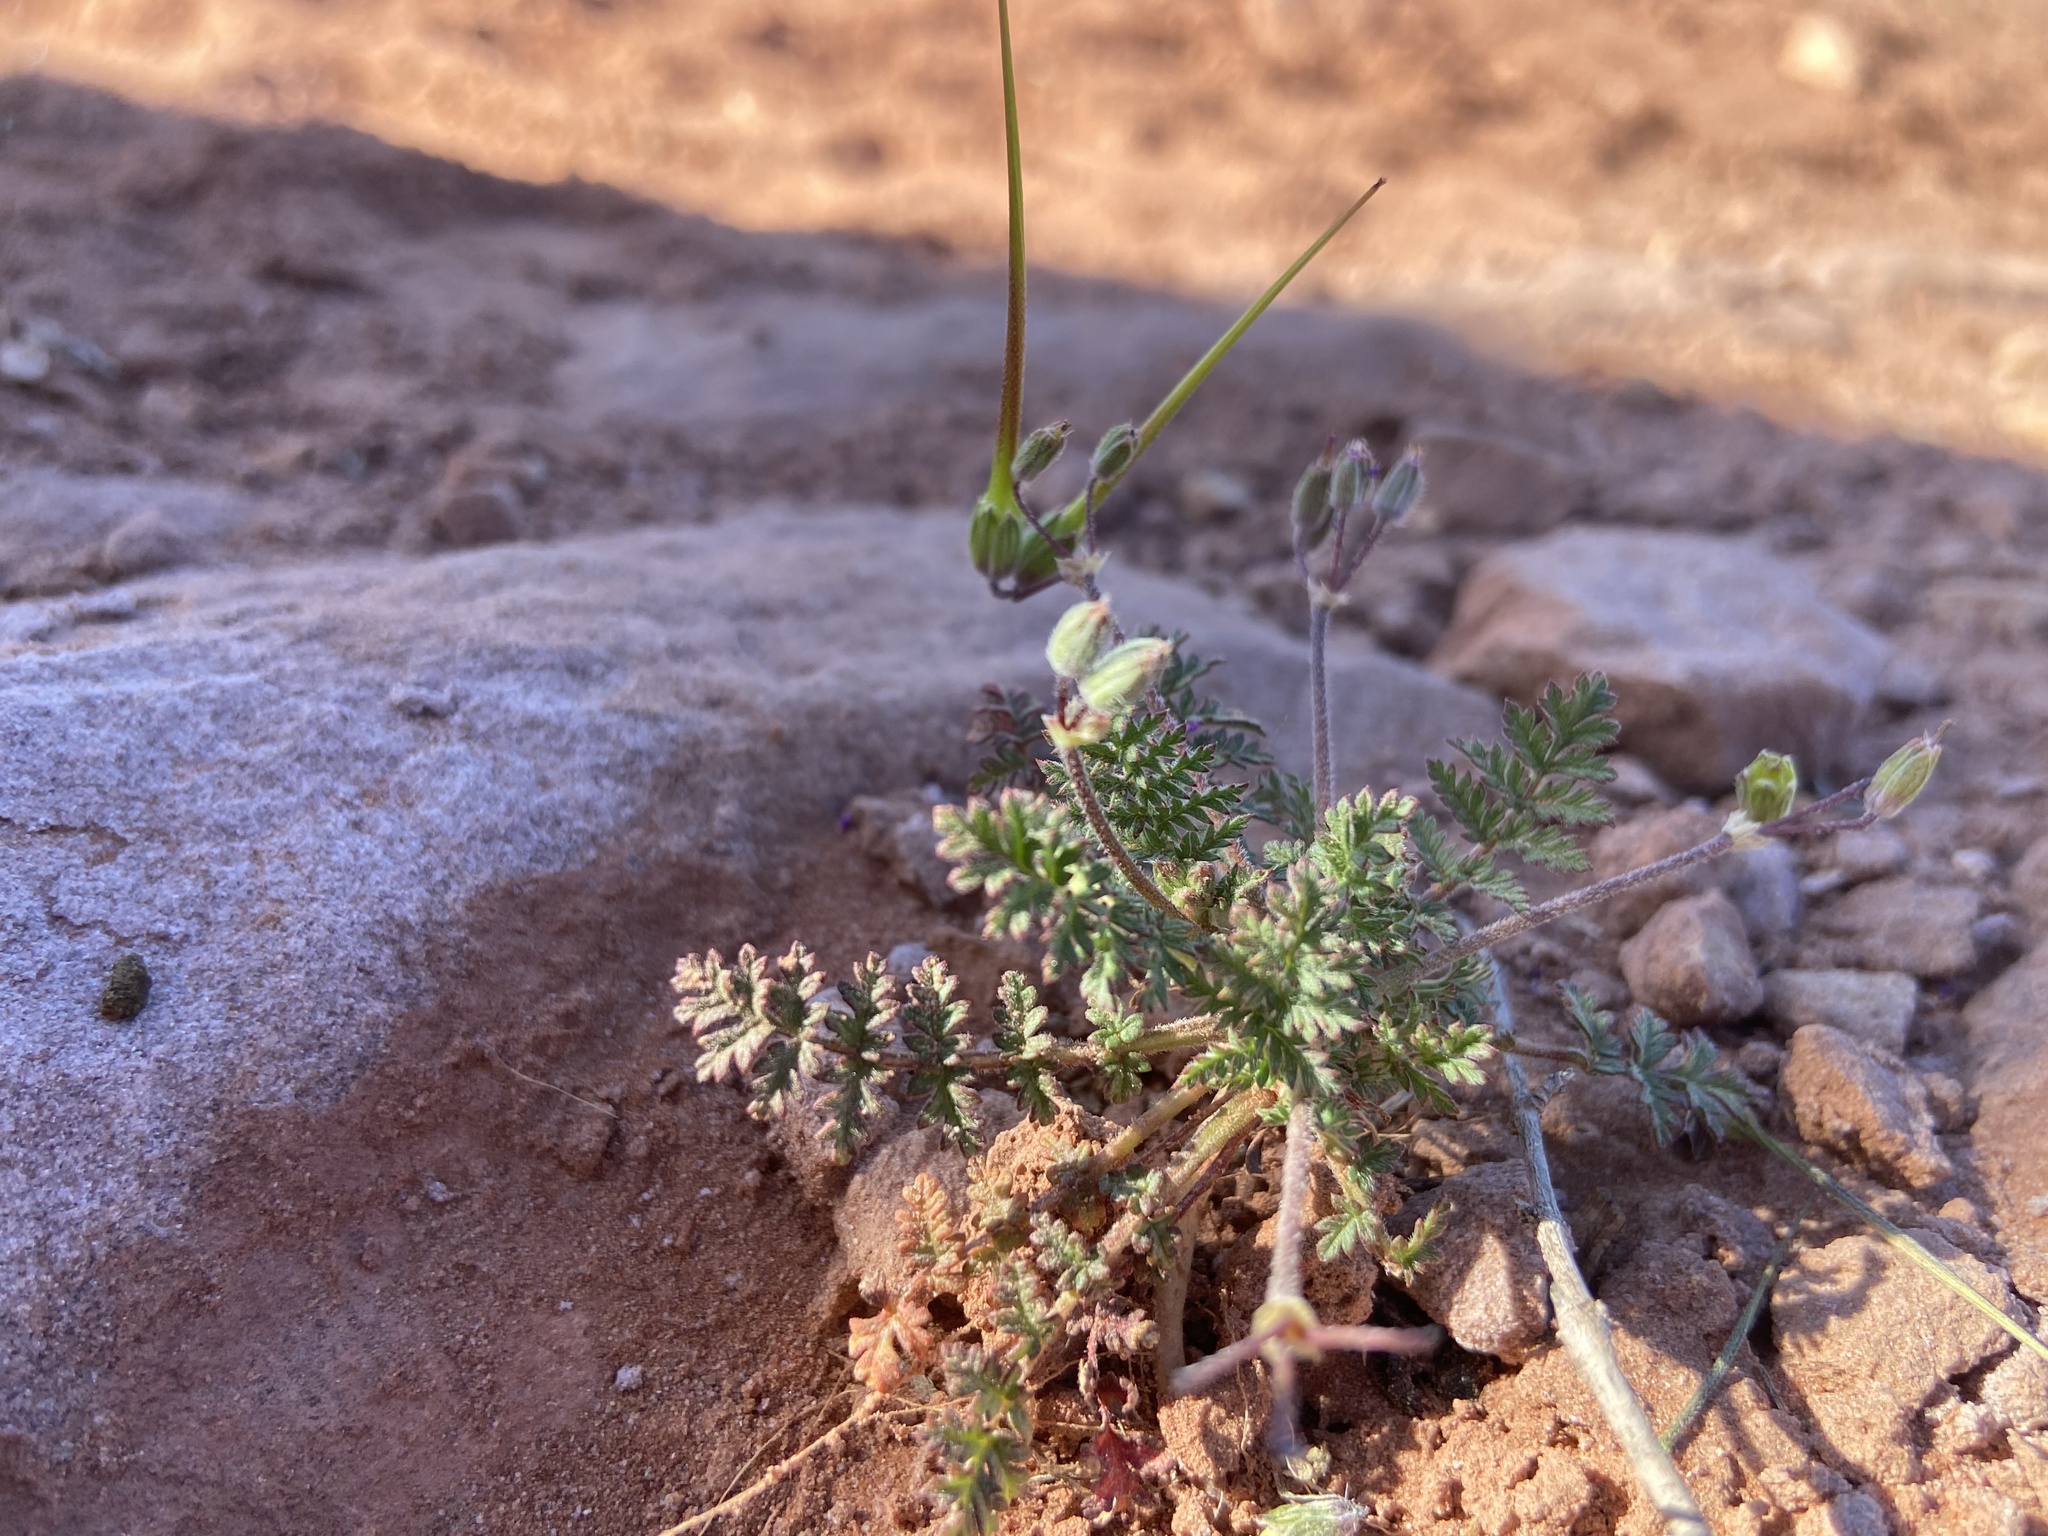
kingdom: Plantae
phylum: Tracheophyta
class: Magnoliopsida
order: Geraniales
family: Geraniaceae
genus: Erodium
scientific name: Erodium cicutarium
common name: Common stork's-bill
